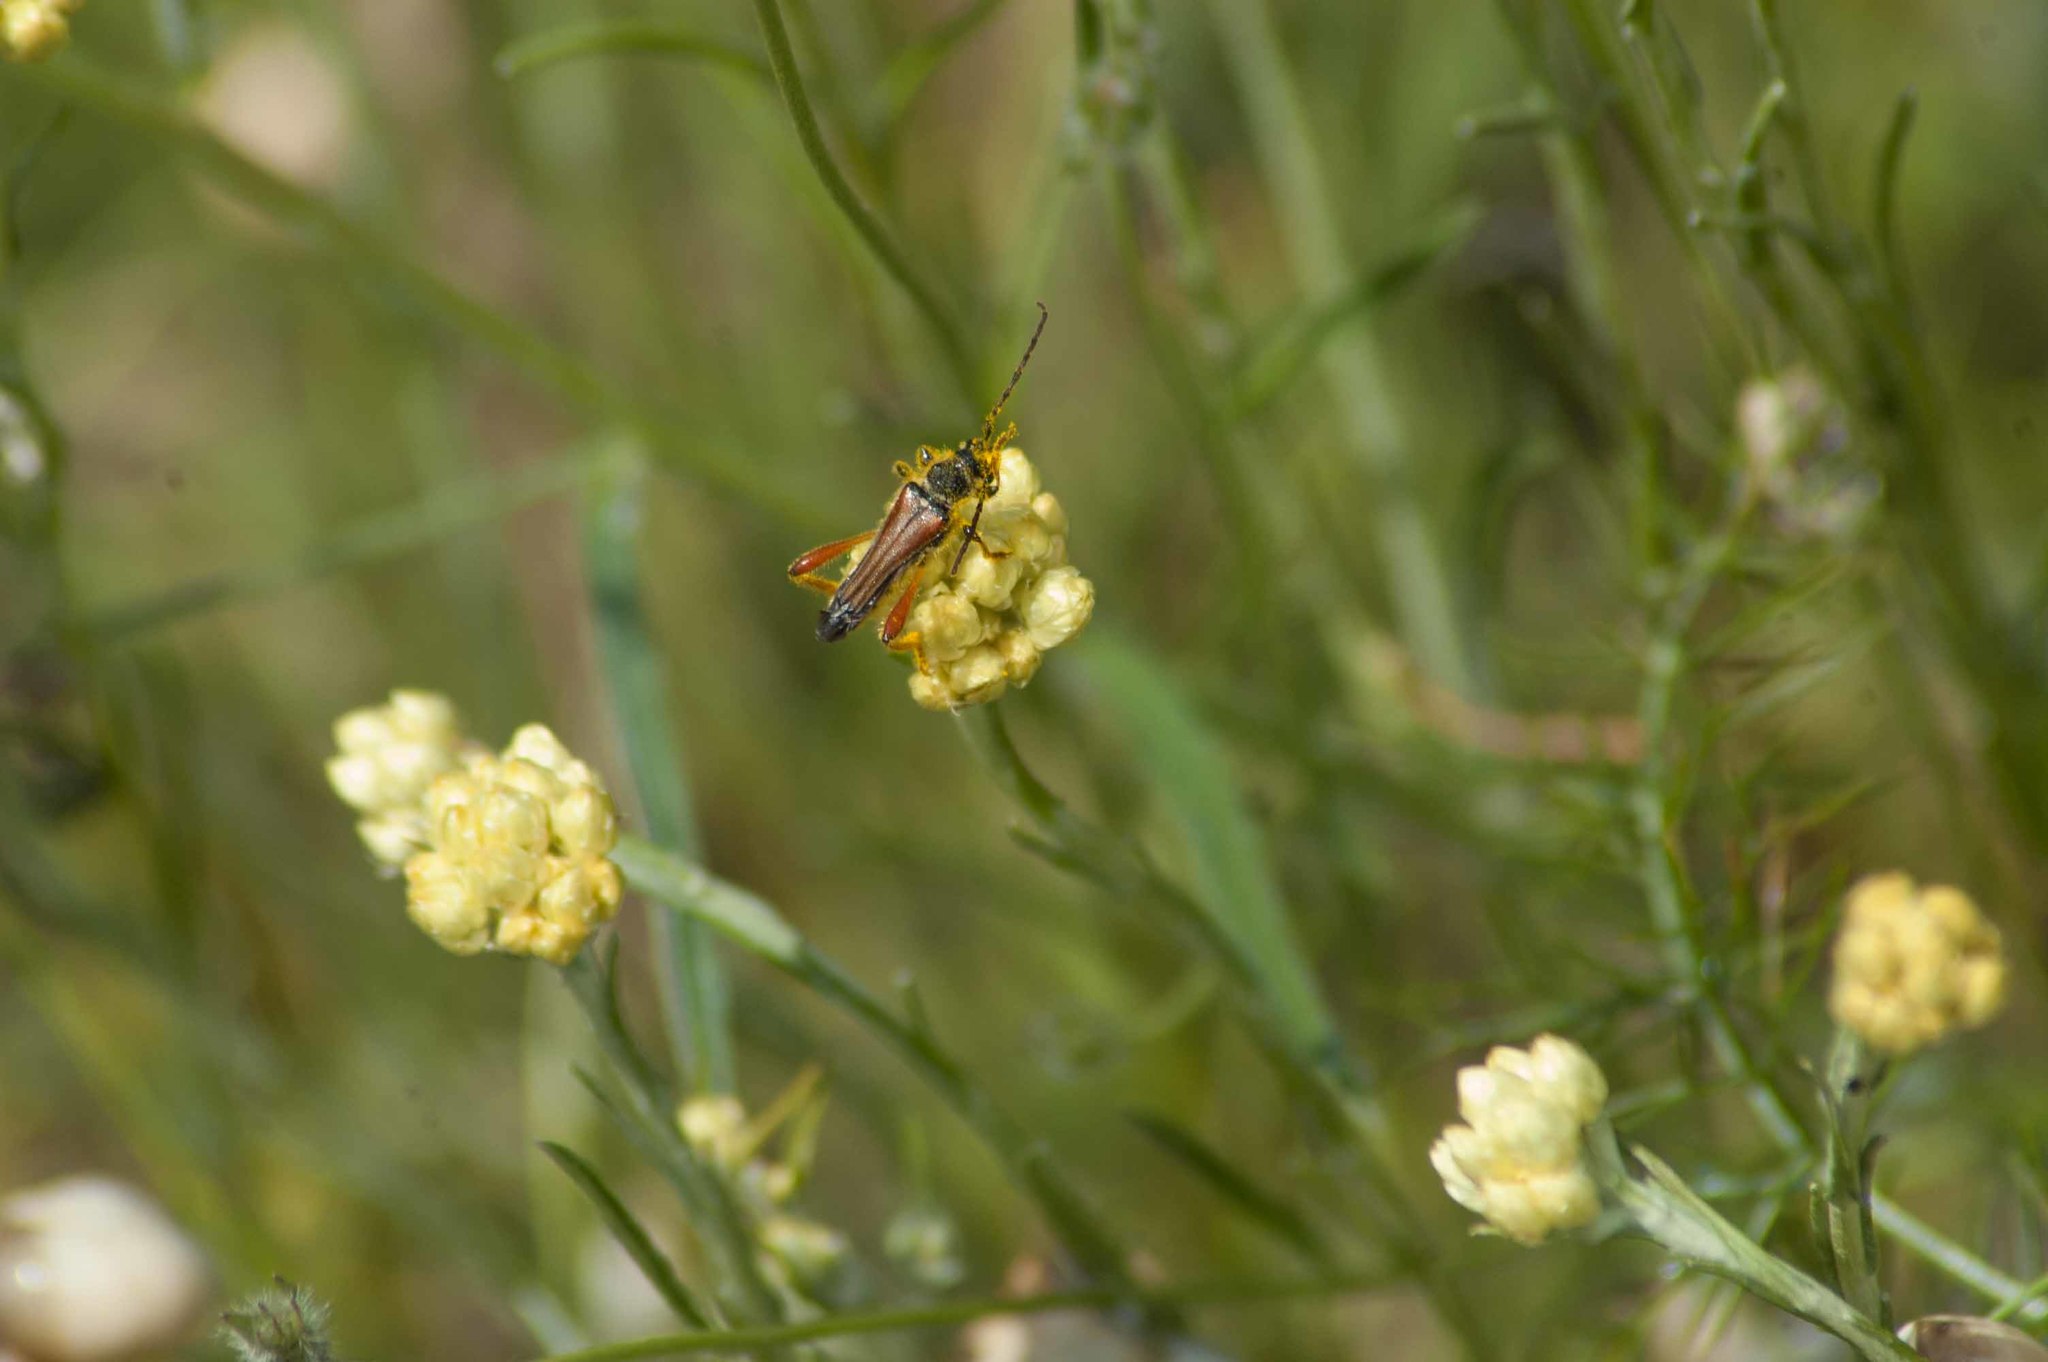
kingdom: Animalia
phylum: Arthropoda
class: Insecta
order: Coleoptera
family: Cerambycidae
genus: Stenopterus
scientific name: Stenopterus rufus
